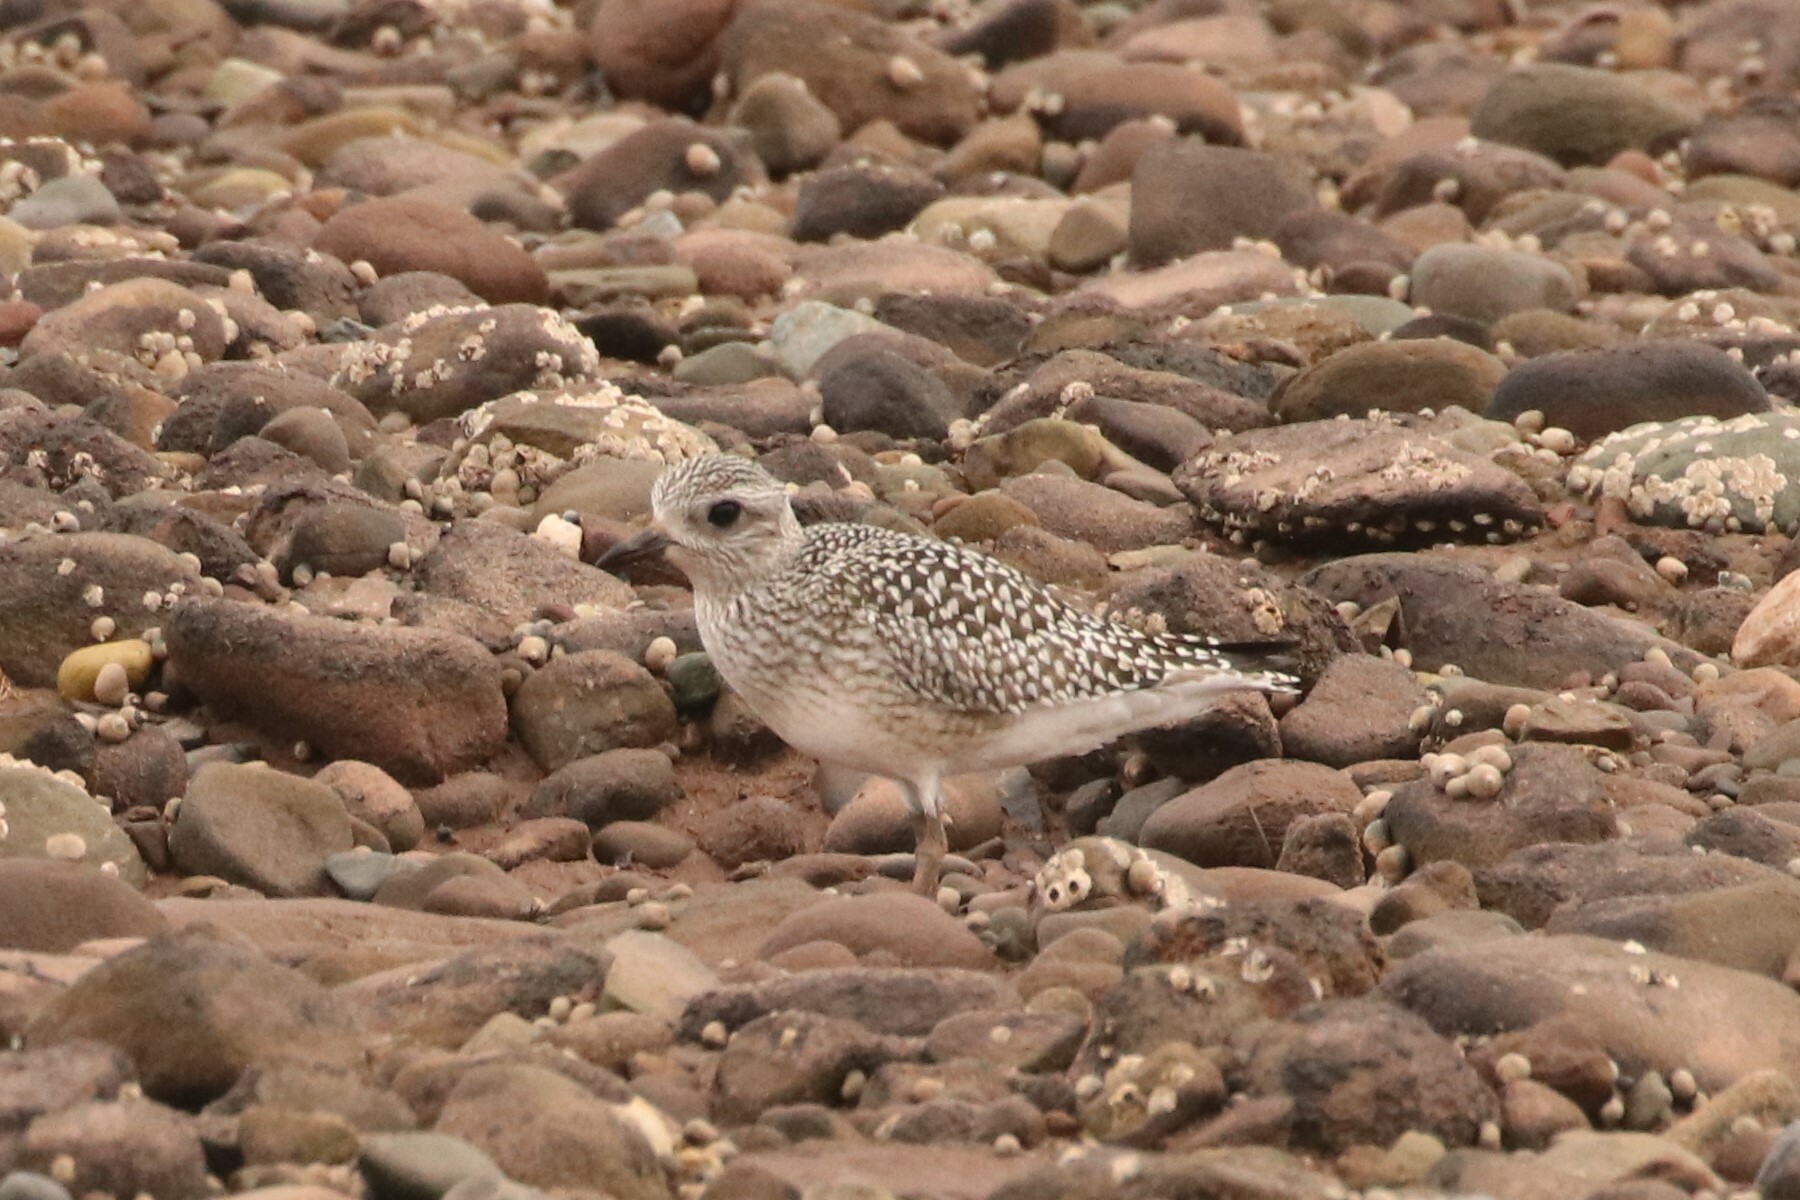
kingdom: Animalia
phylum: Chordata
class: Aves
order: Charadriiformes
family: Charadriidae
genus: Pluvialis
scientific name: Pluvialis squatarola
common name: Grey plover
